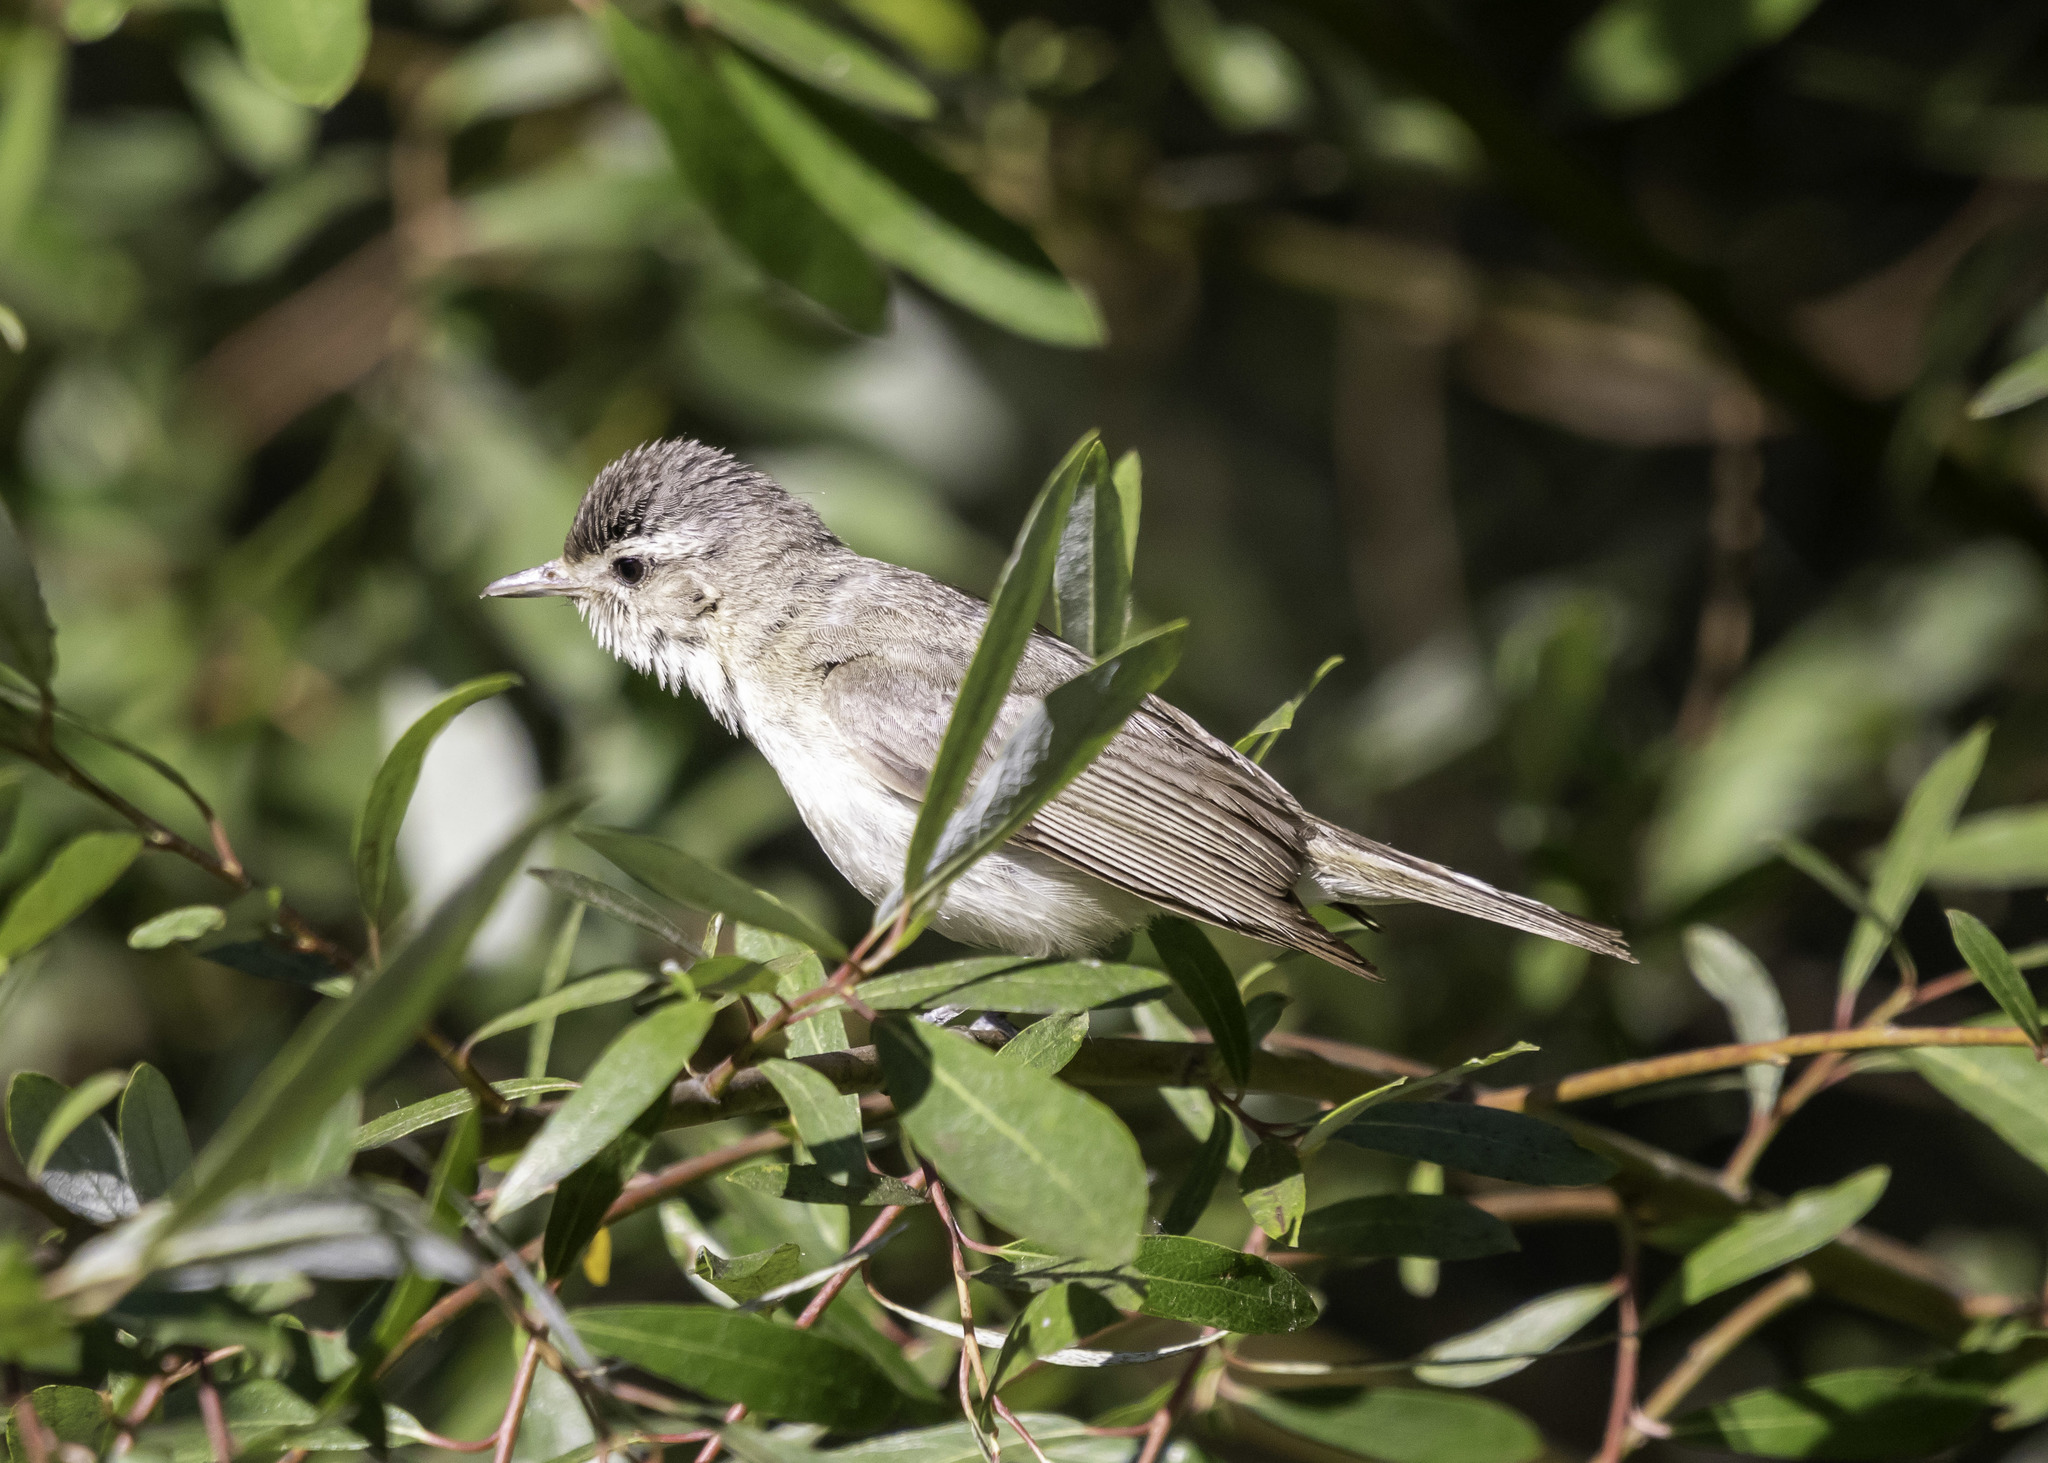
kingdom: Animalia
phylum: Chordata
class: Aves
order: Passeriformes
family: Vireonidae
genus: Vireo
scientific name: Vireo gilvus
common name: Warbling vireo
